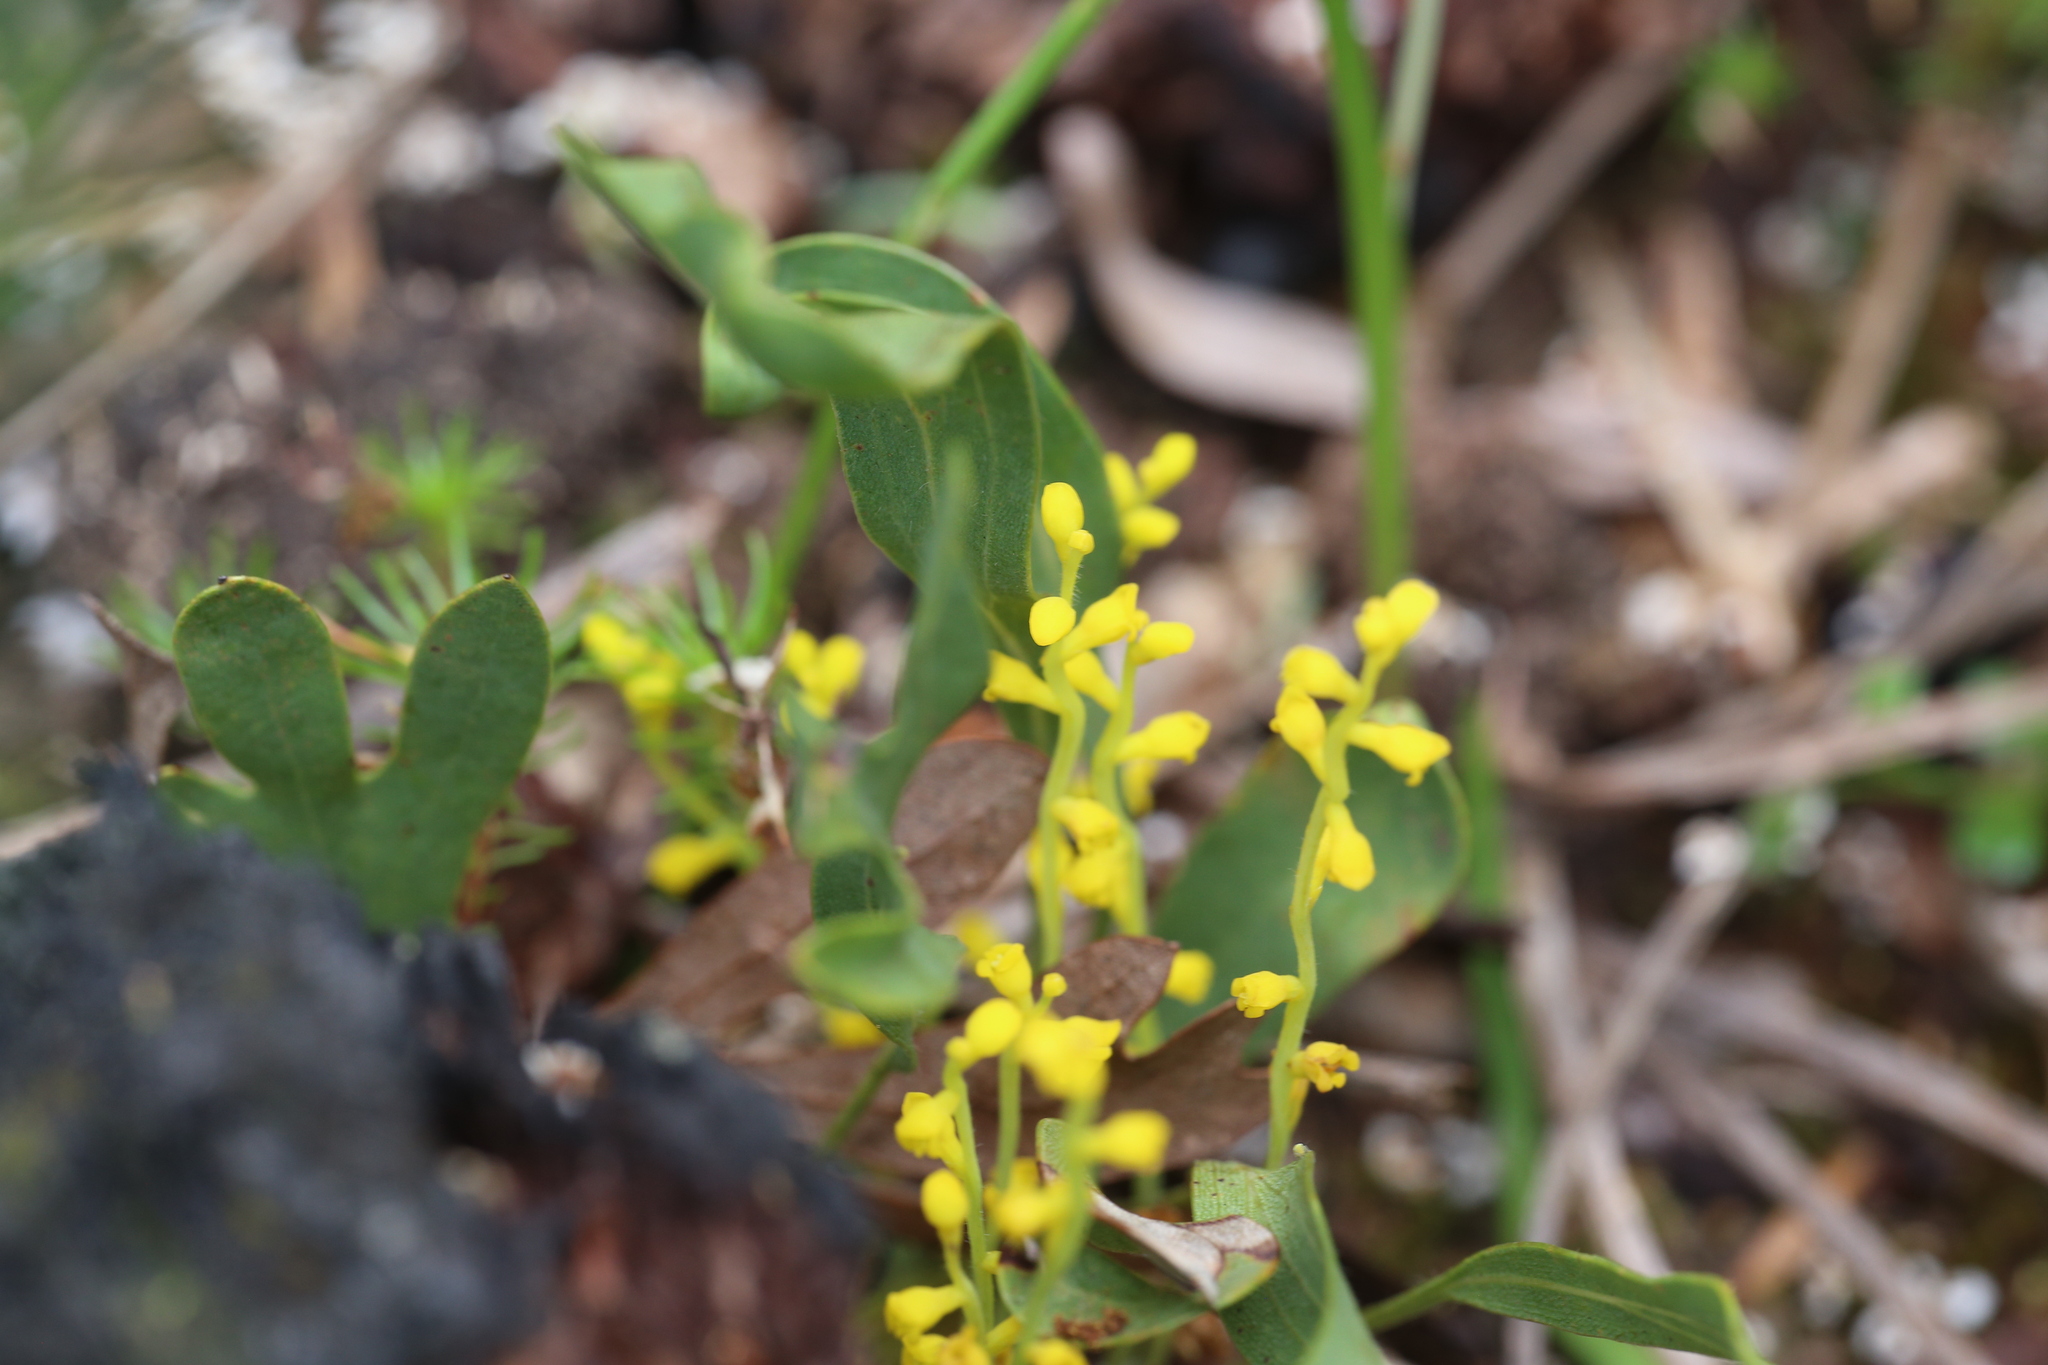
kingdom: Plantae
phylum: Tracheophyta
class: Magnoliopsida
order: Proteales
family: Proteaceae
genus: Synaphea
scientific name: Synaphea petiolaris
